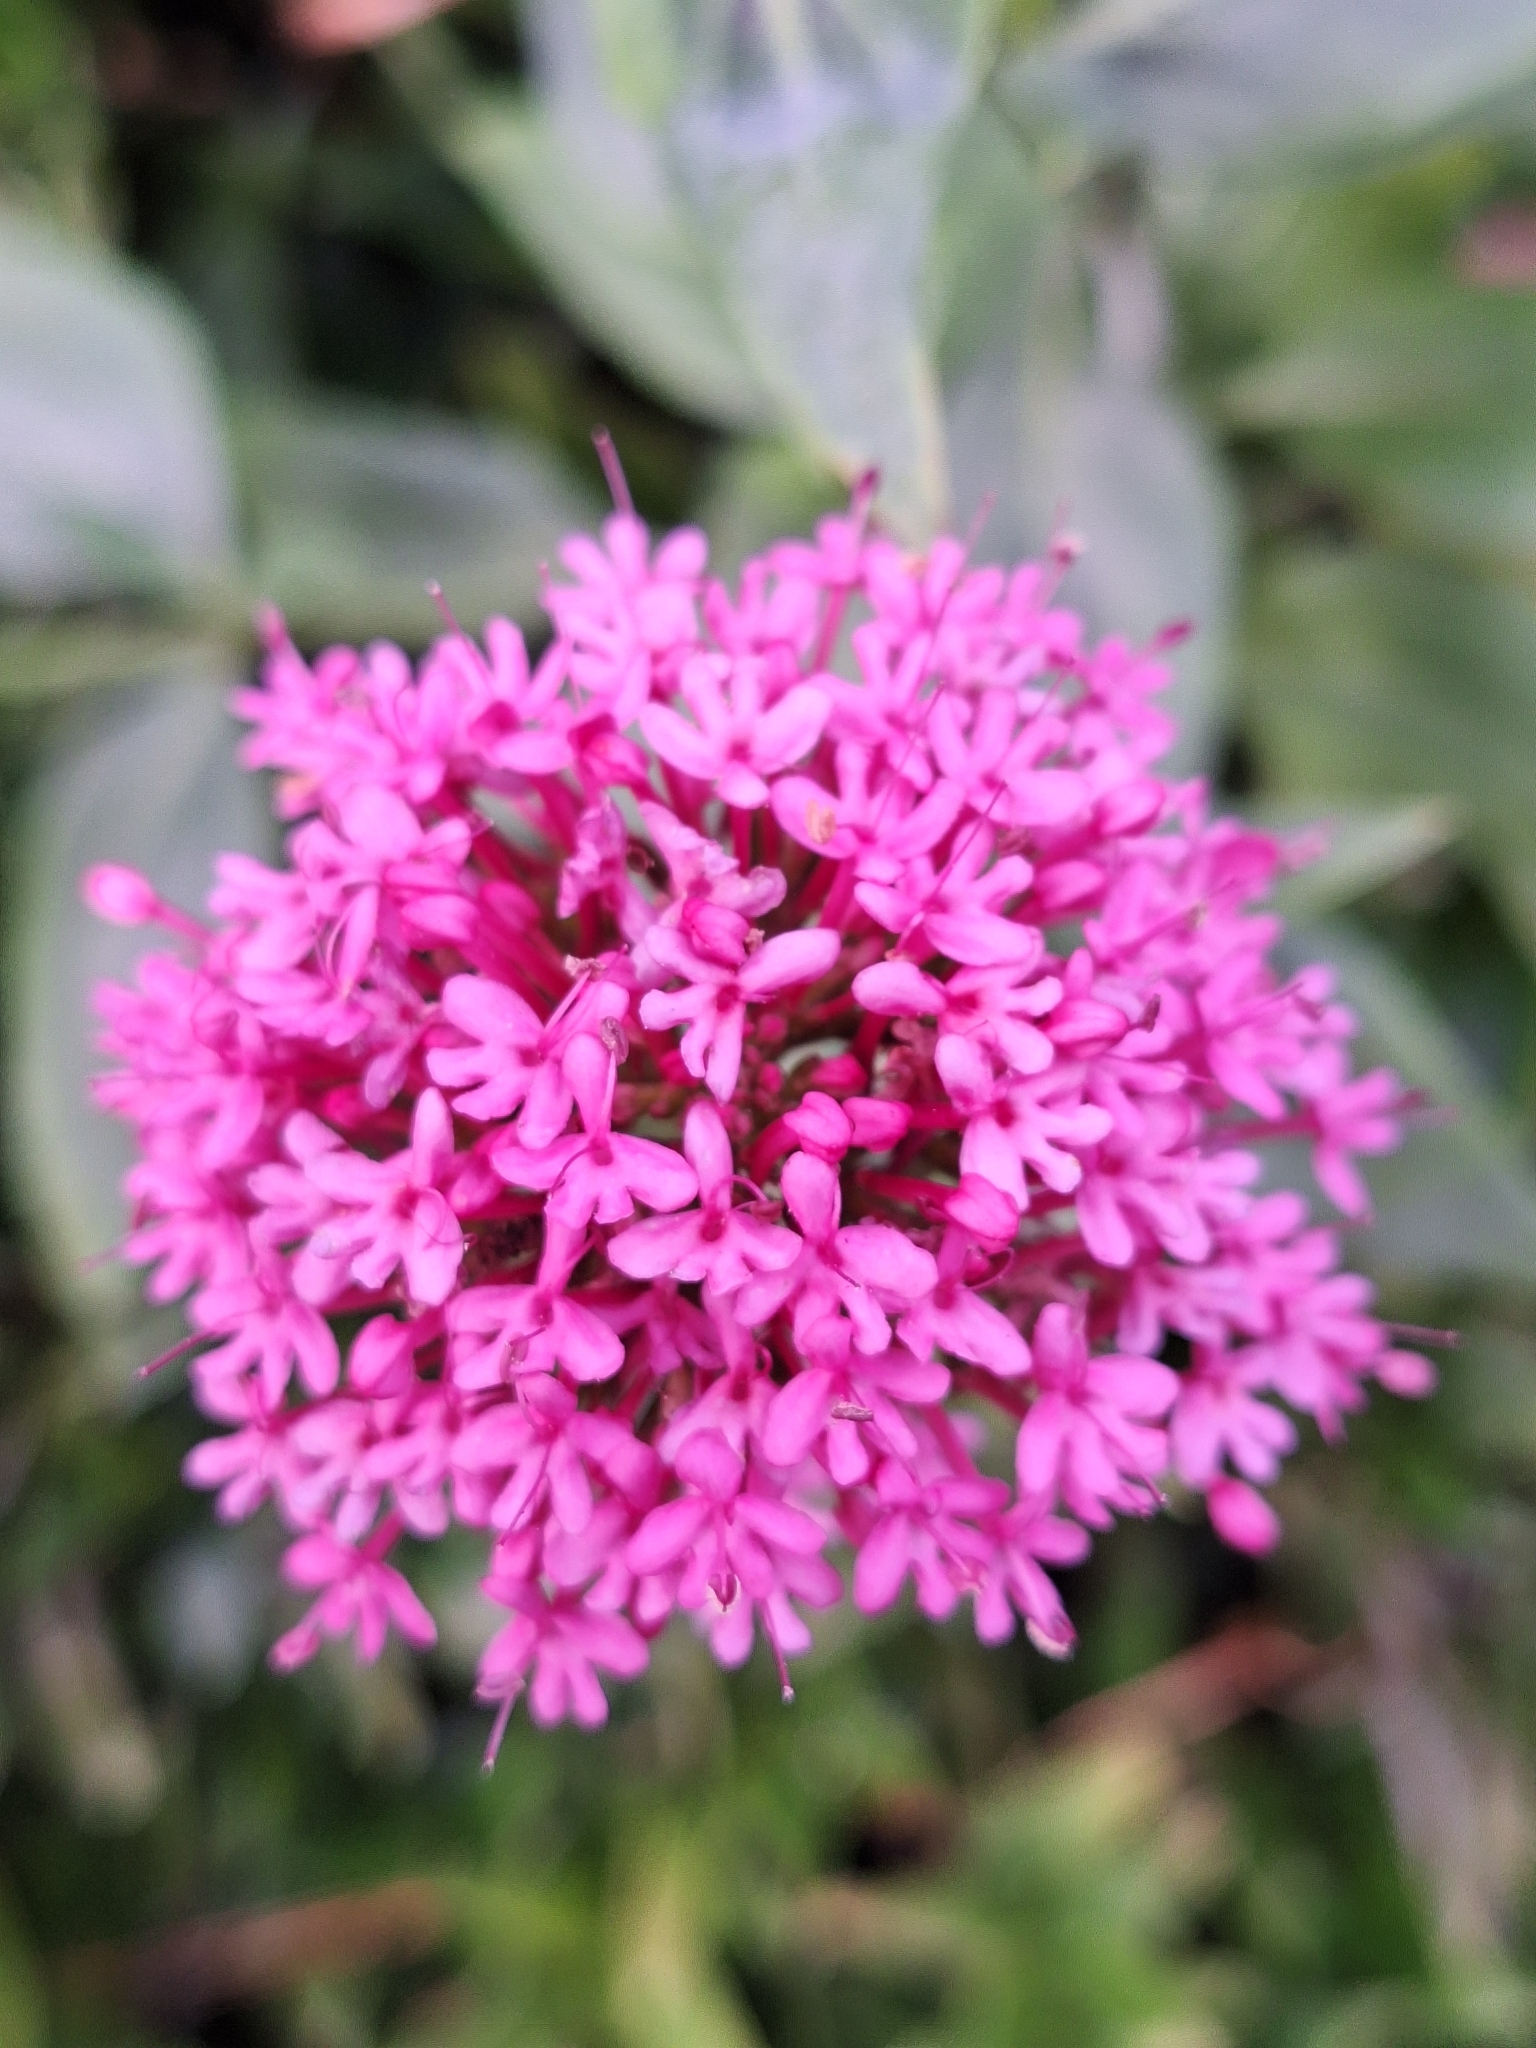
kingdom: Plantae
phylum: Tracheophyta
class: Magnoliopsida
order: Dipsacales
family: Caprifoliaceae
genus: Centranthus
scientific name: Centranthus ruber
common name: Red valerian
